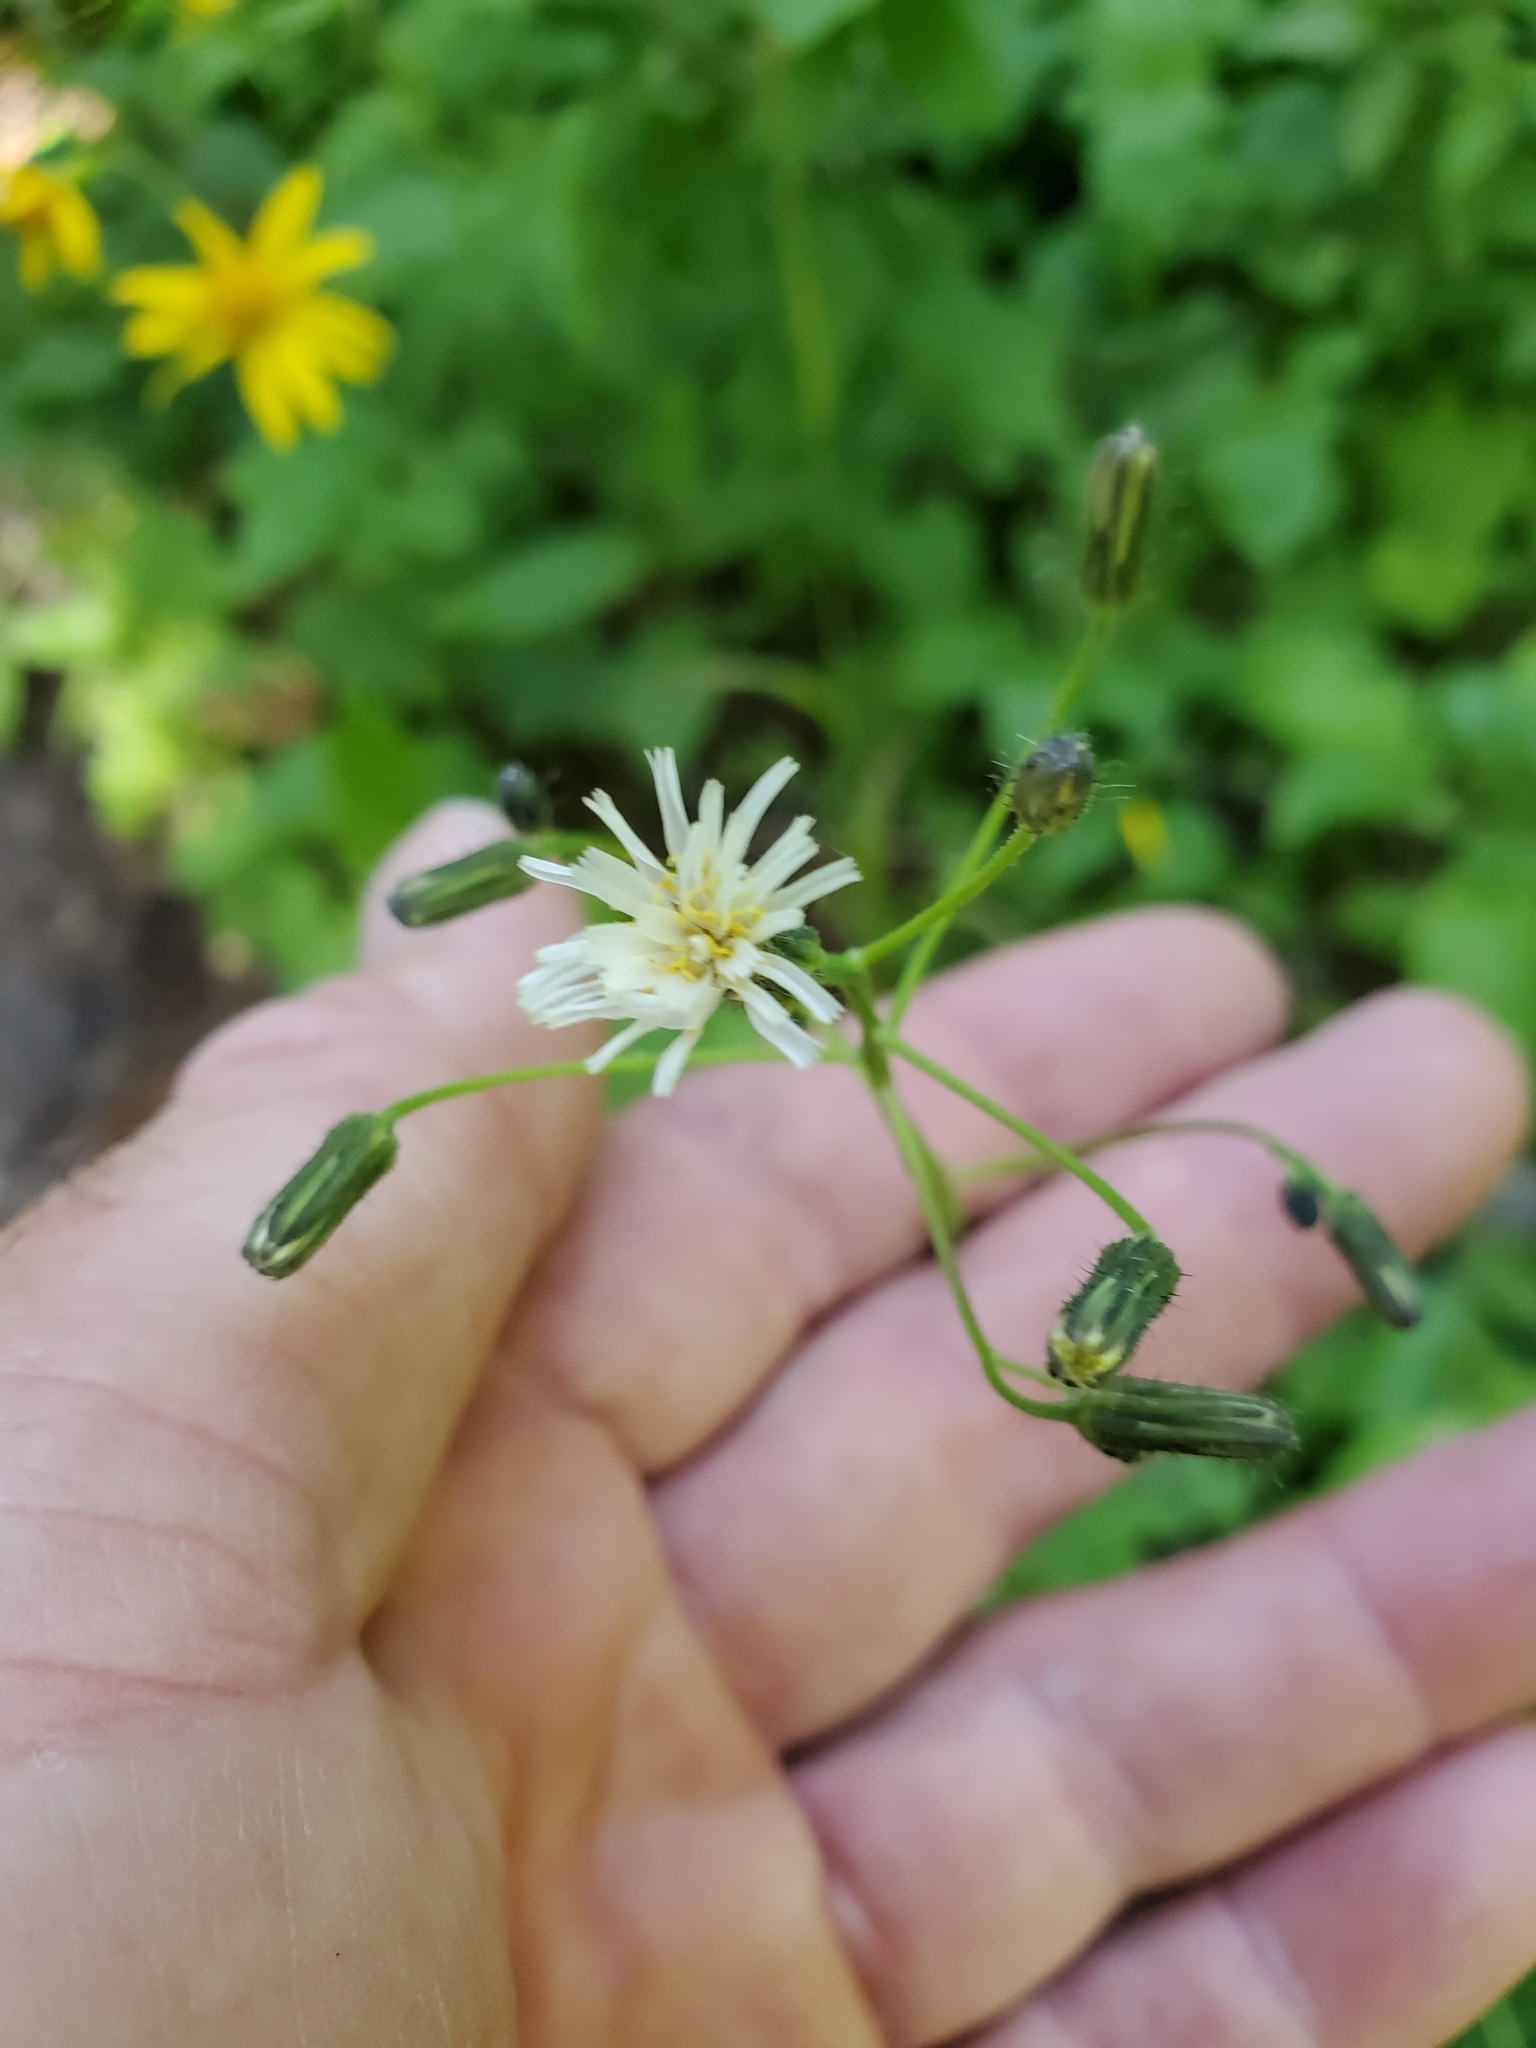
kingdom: Plantae
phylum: Tracheophyta
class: Magnoliopsida
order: Asterales
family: Asteraceae
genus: Hieracium
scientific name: Hieracium albiflorum
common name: White hawkweed
